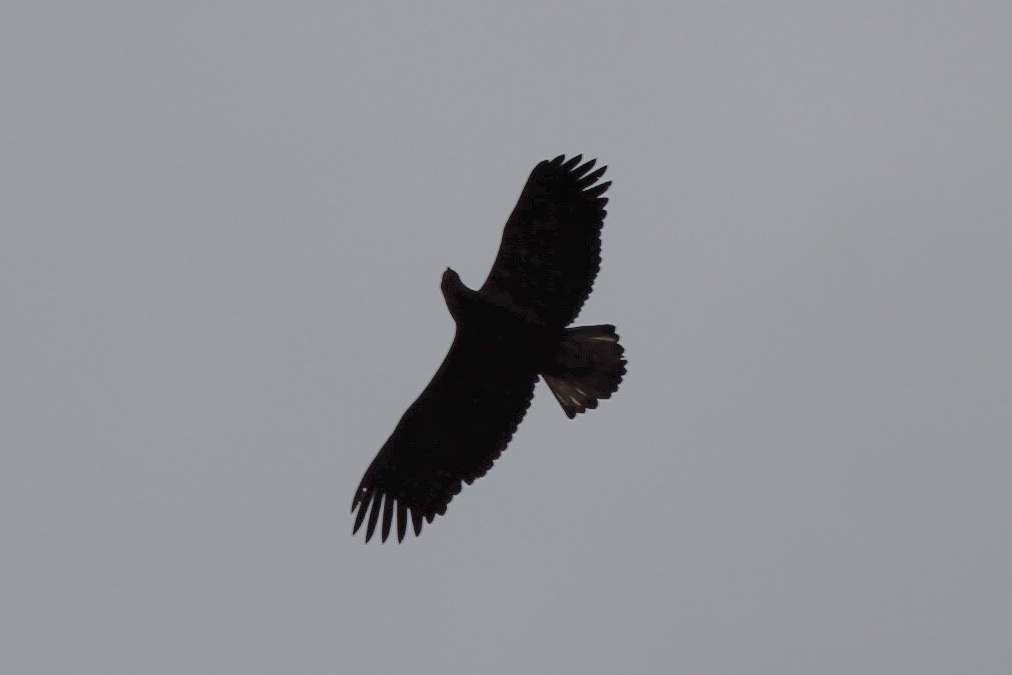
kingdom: Animalia
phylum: Chordata
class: Aves
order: Accipitriformes
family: Accipitridae
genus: Haliaeetus
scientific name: Haliaeetus leucocephalus
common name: Bald eagle
